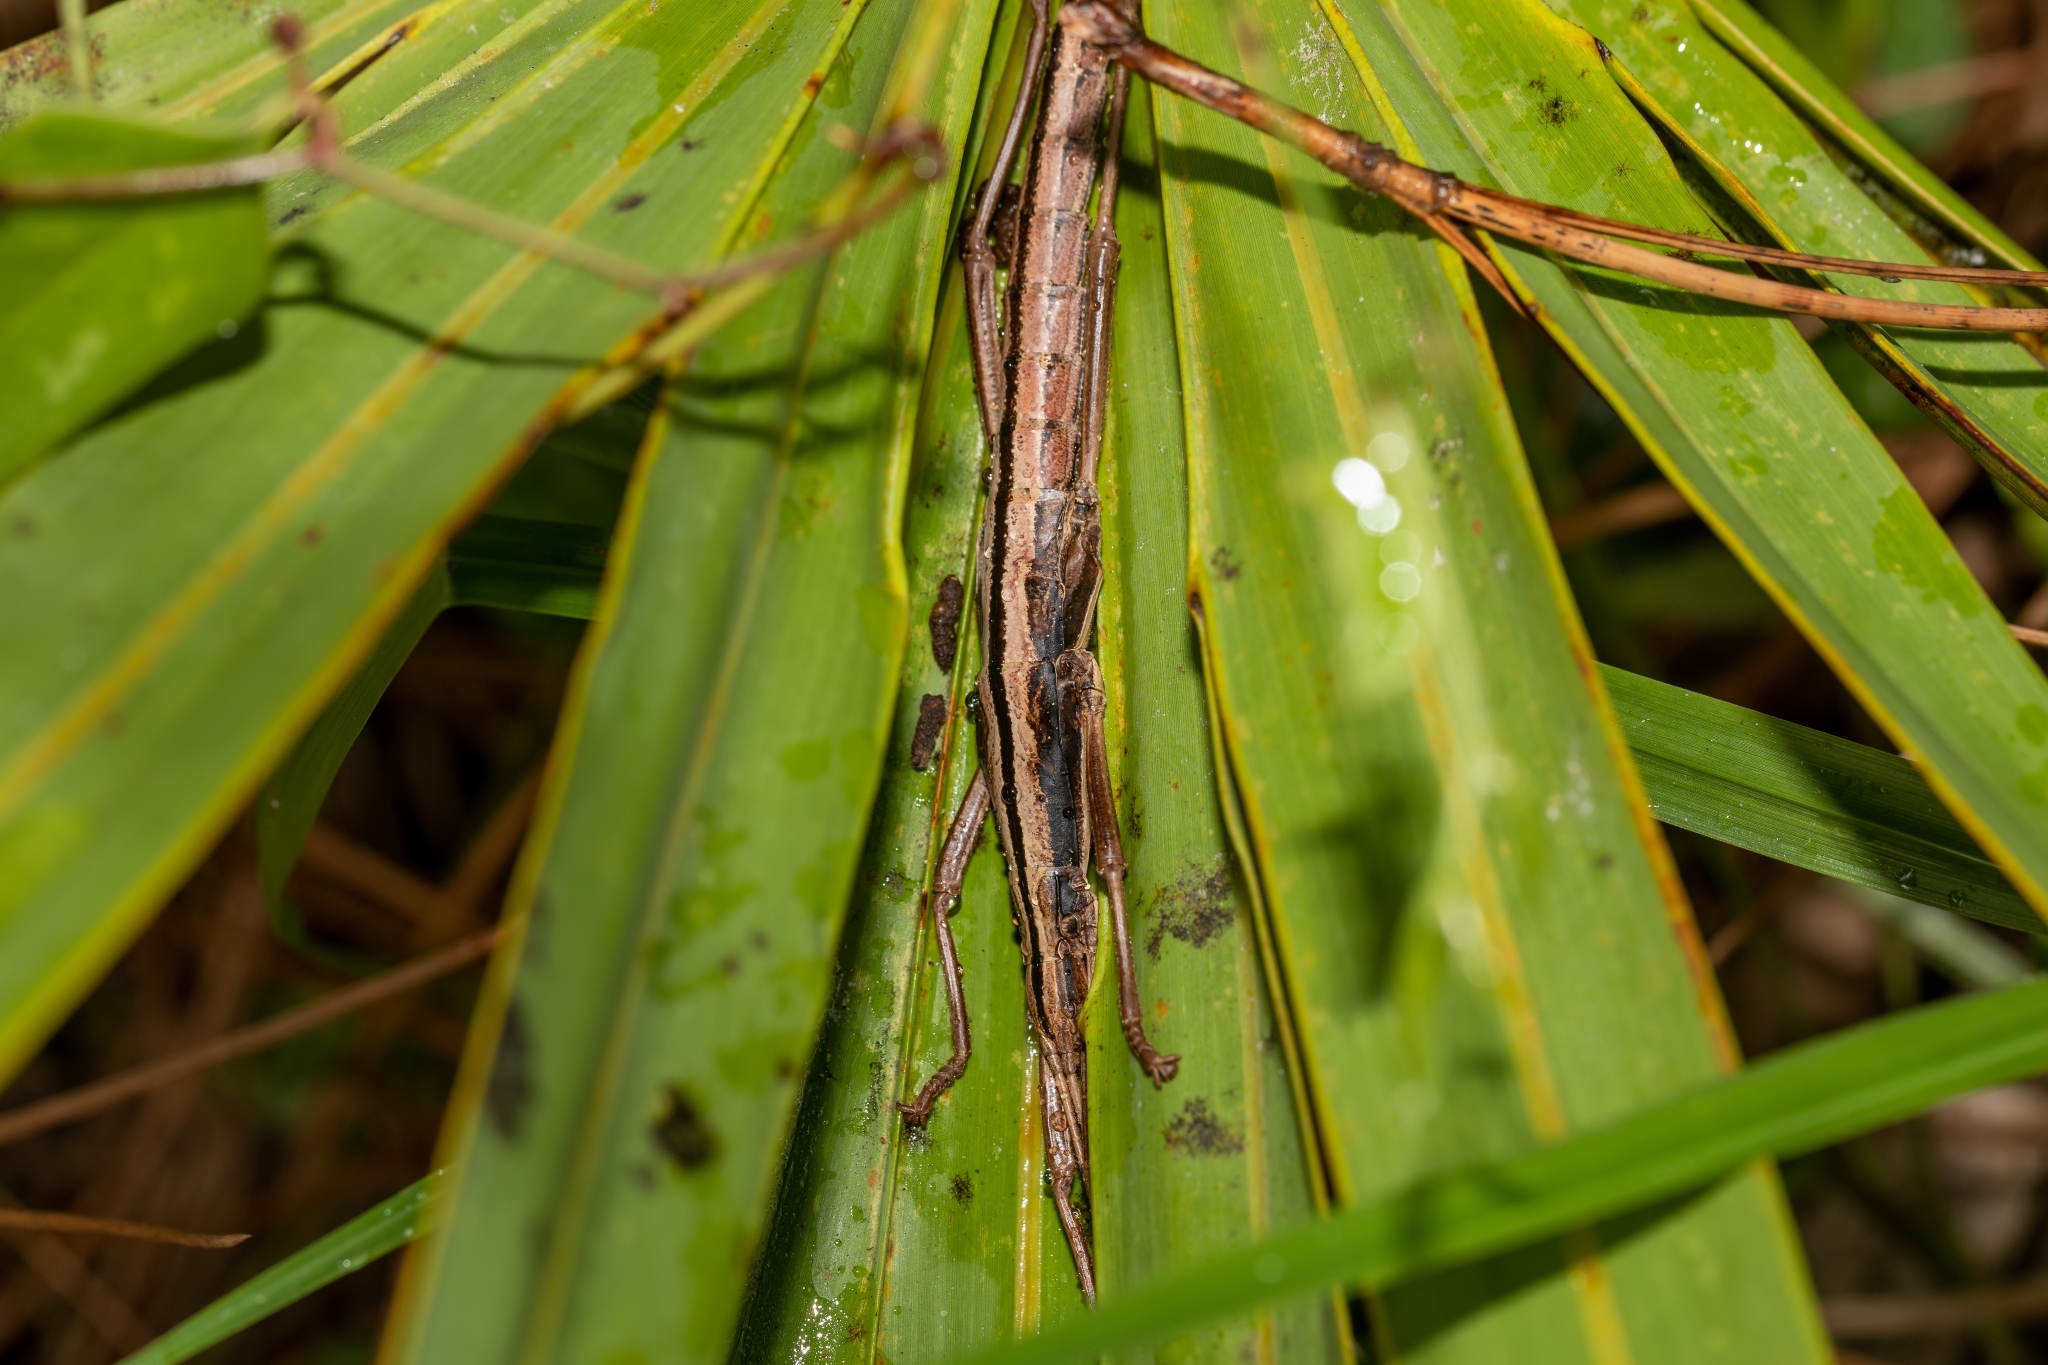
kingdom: Animalia
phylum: Arthropoda
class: Insecta
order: Phasmida
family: Pseudophasmatidae
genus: Anisomorpha
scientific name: Anisomorpha buprestoides
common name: Florida stick insect
